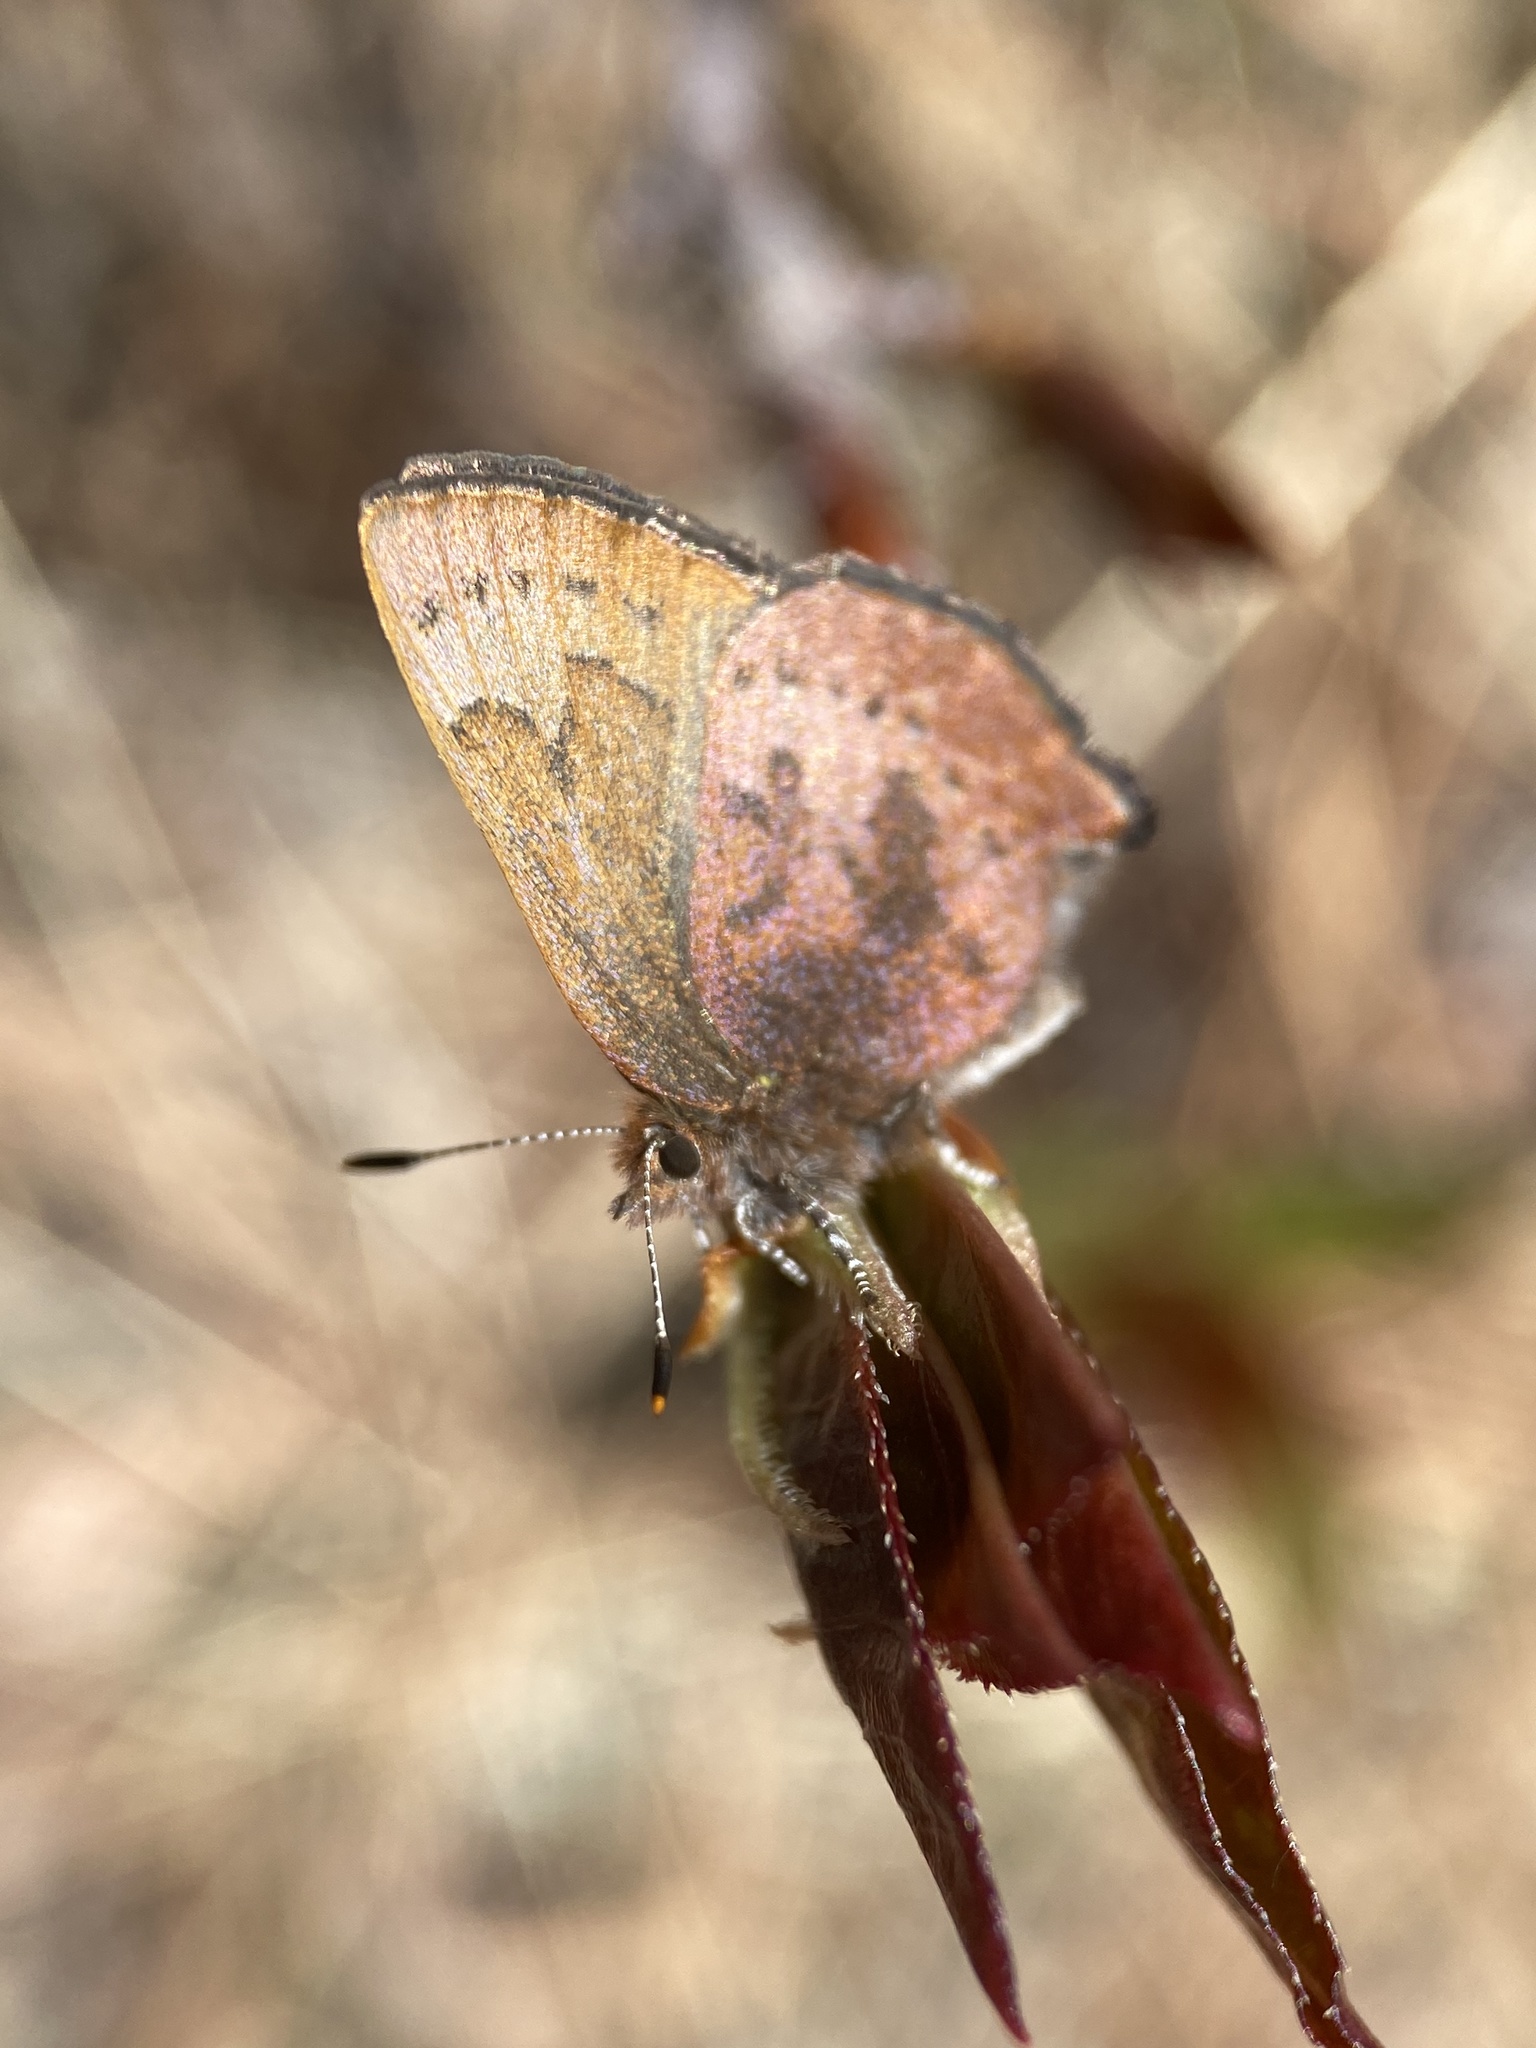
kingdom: Animalia
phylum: Arthropoda
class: Insecta
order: Lepidoptera
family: Lycaenidae
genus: Incisalia
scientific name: Incisalia irioides
